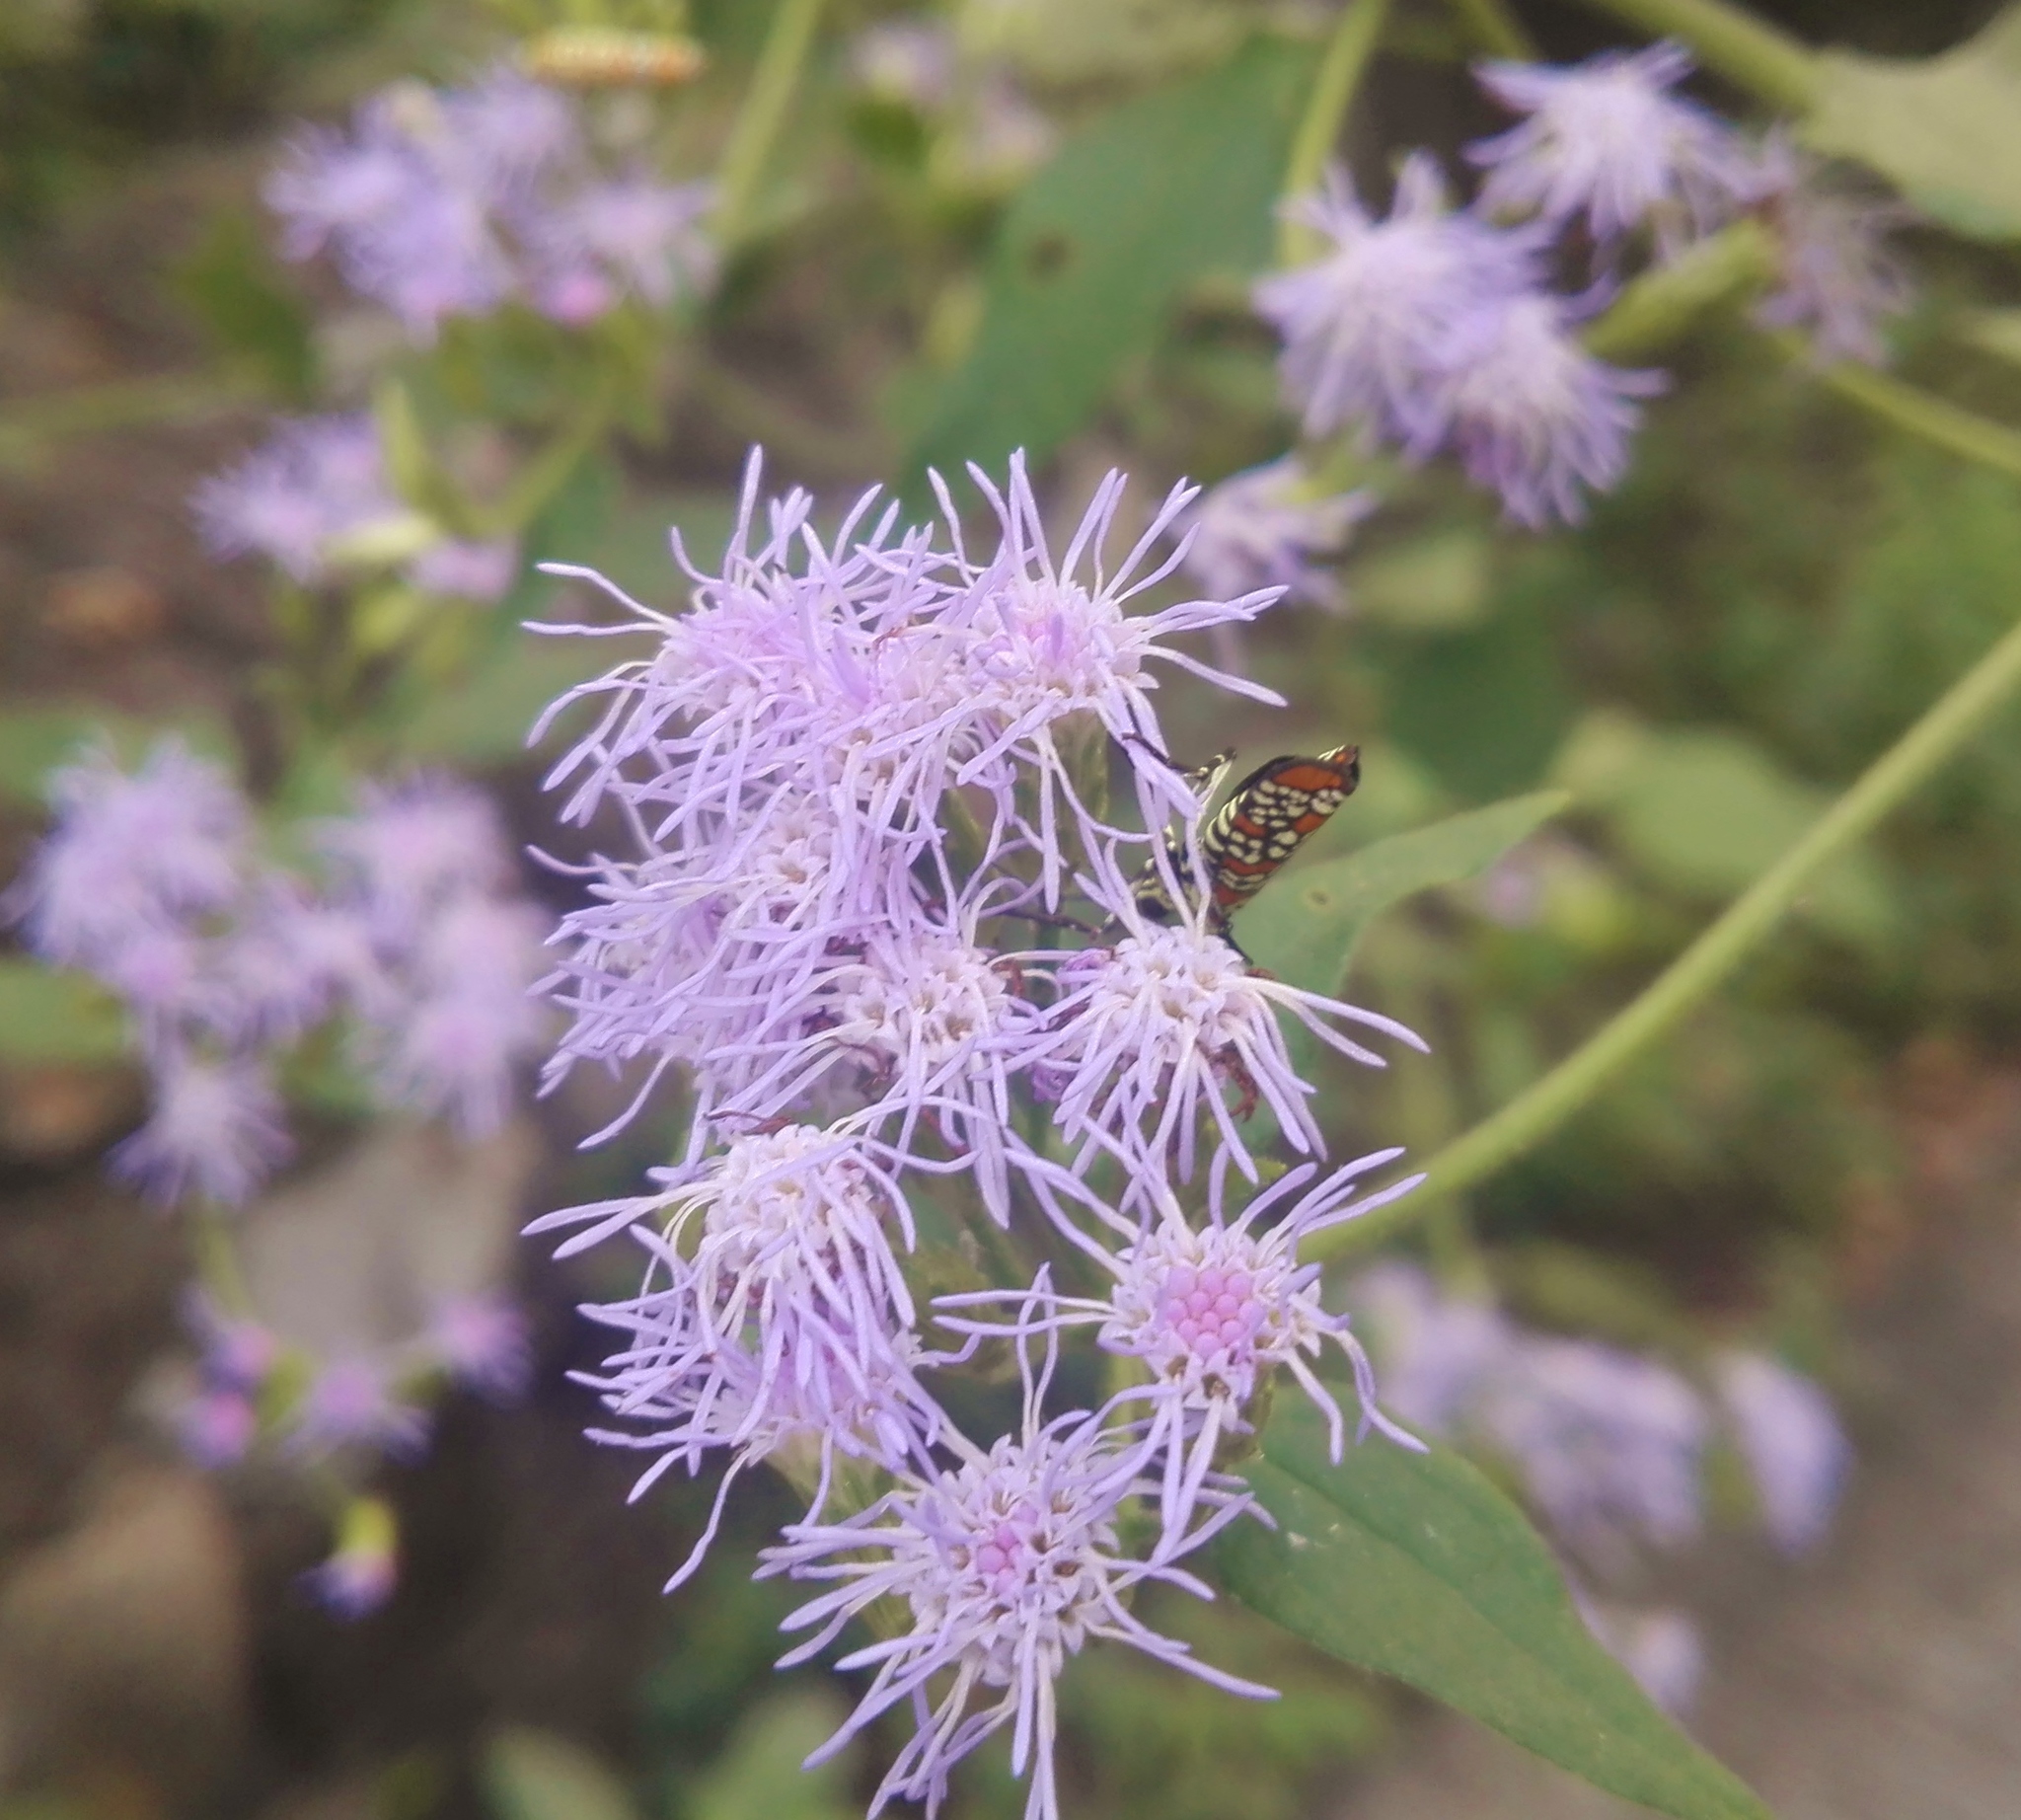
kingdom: Animalia
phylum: Arthropoda
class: Insecta
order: Lepidoptera
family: Attevidae
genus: Atteva
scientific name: Atteva punctella
